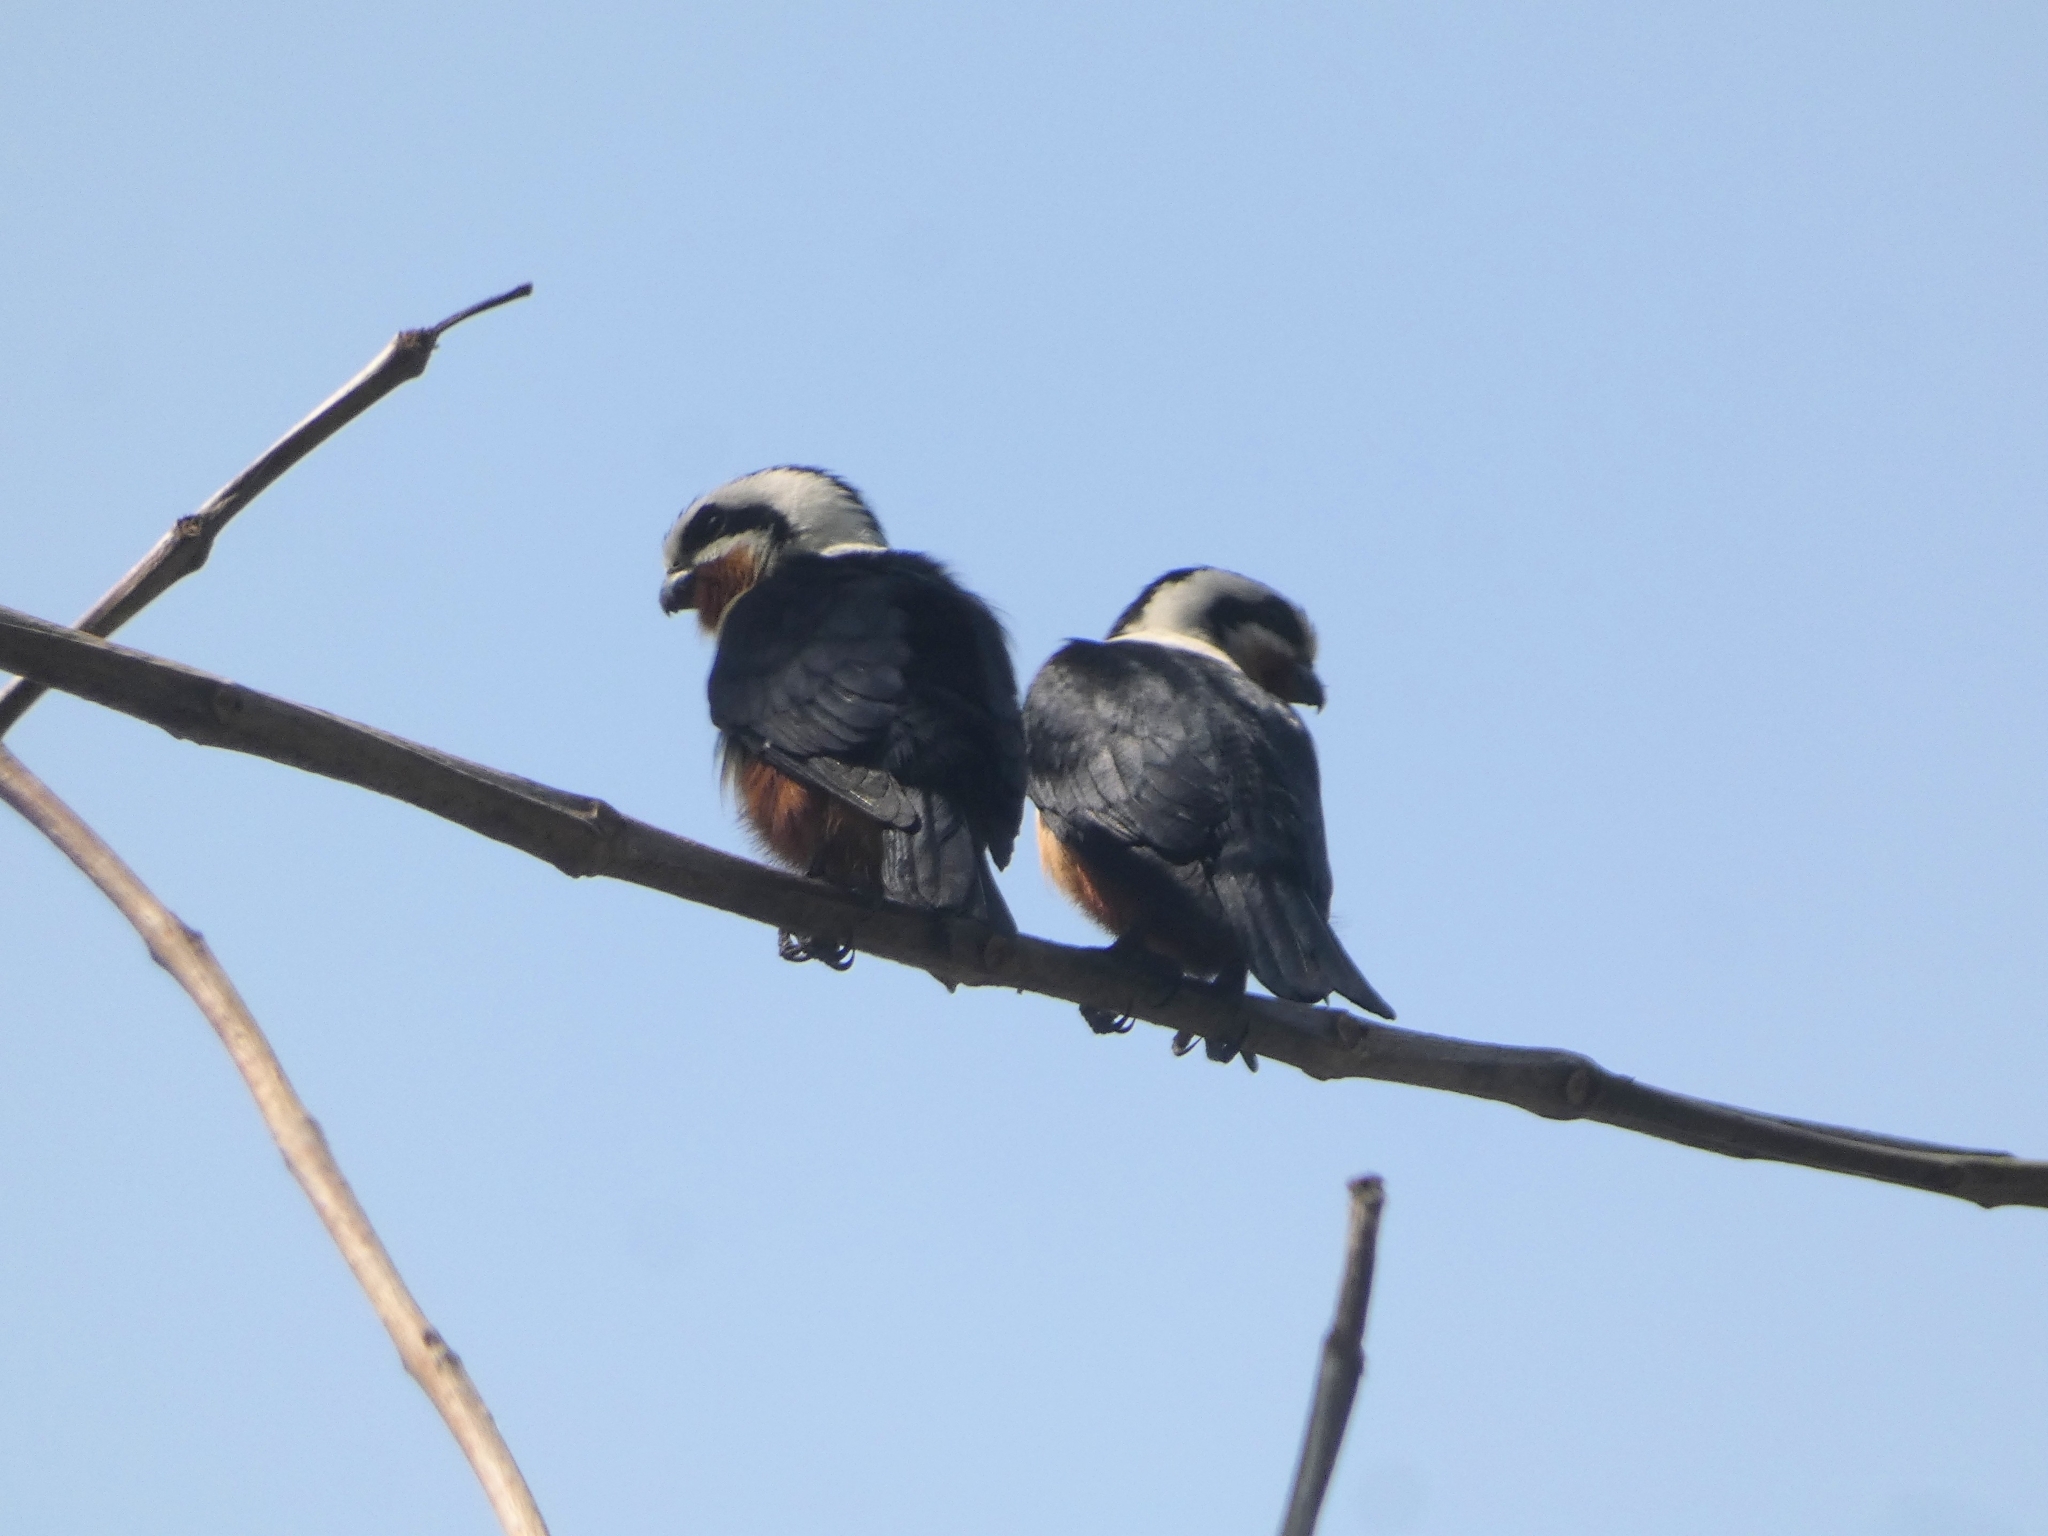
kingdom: Animalia
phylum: Chordata
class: Aves
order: Falconiformes
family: Falconidae
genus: Microhierax
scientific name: Microhierax caerulescens
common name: Collared falconet
